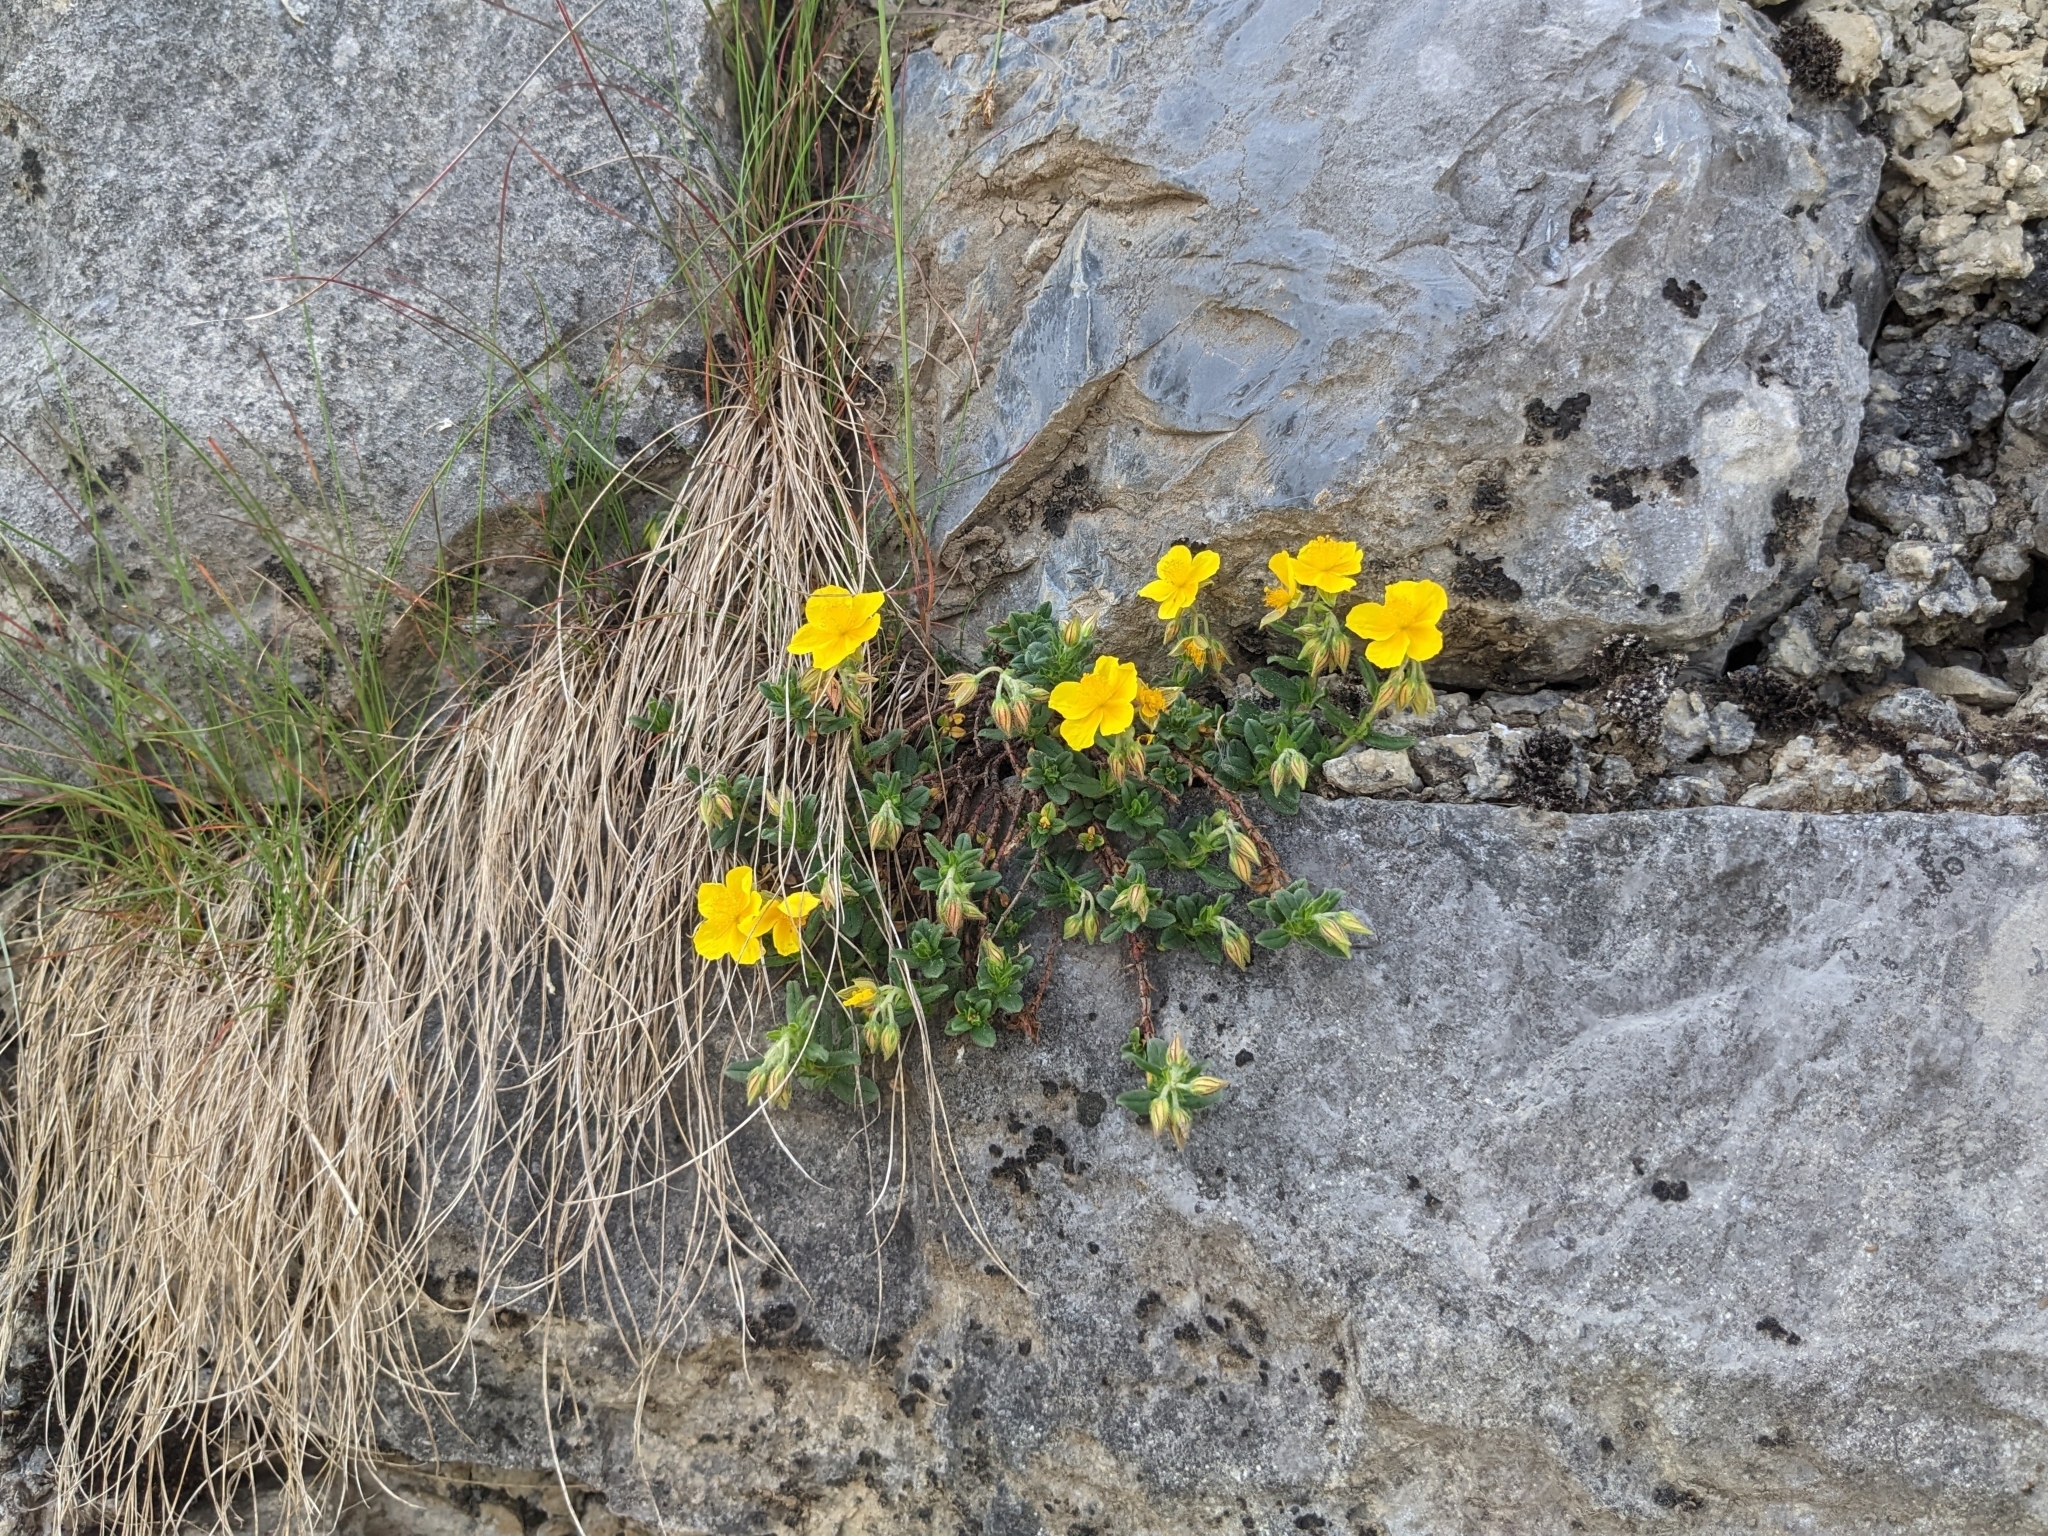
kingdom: Plantae
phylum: Tracheophyta
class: Magnoliopsida
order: Malvales
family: Cistaceae
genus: Helianthemum
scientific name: Helianthemum nummularium
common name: Common rock-rose
